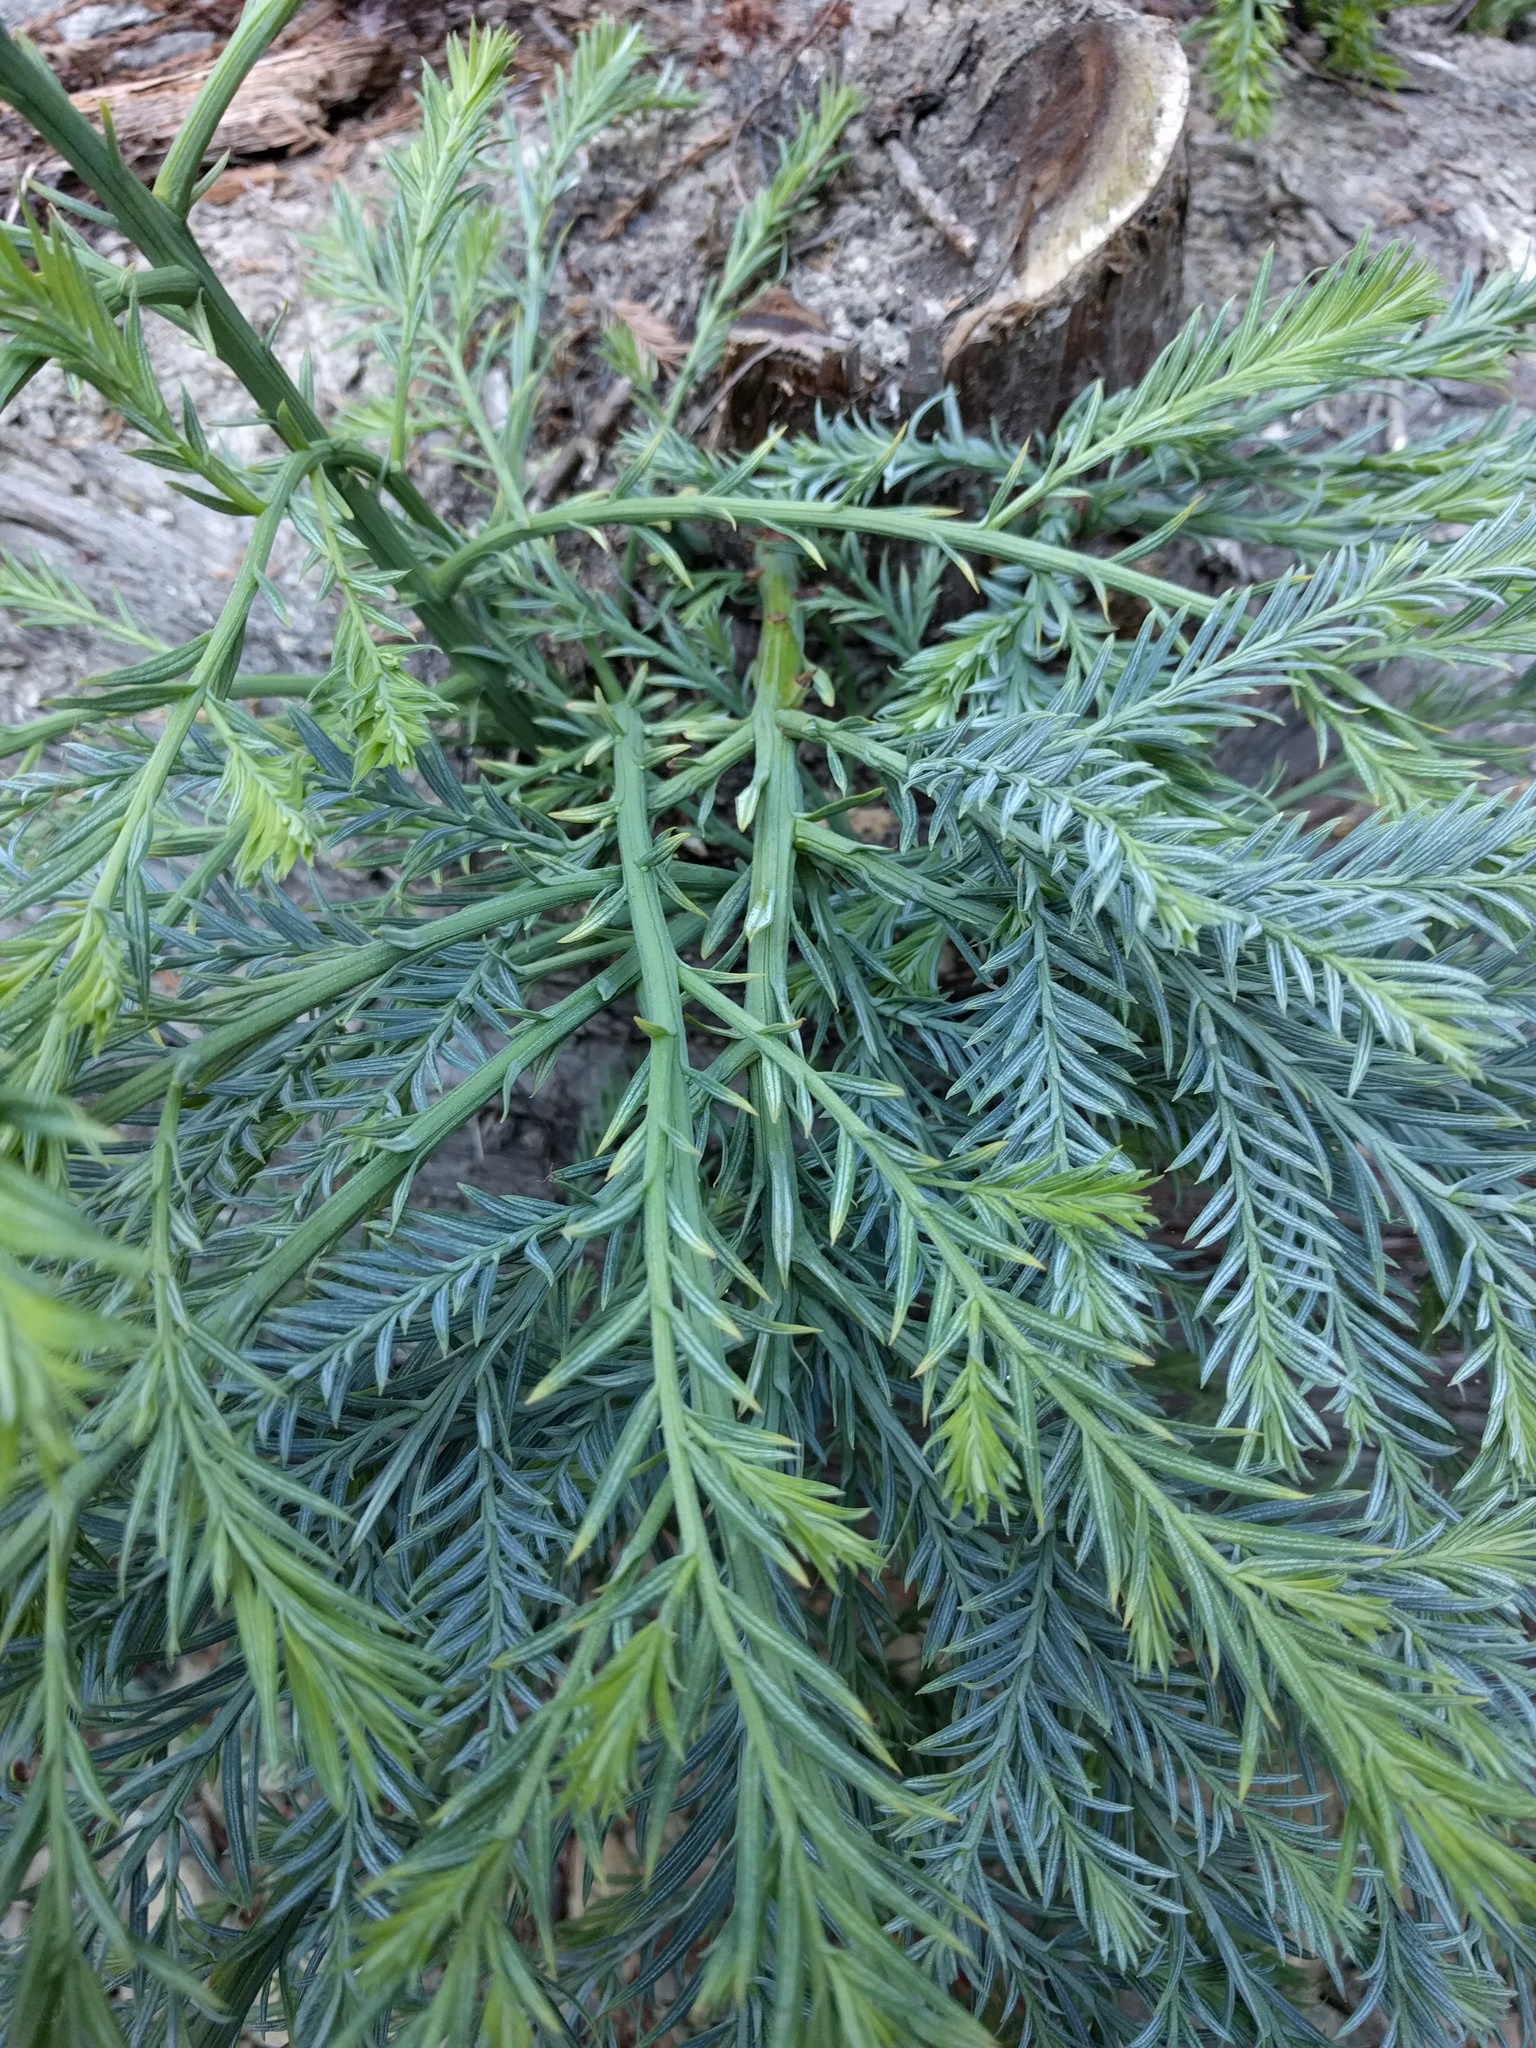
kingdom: Plantae
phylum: Tracheophyta
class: Pinopsida
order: Pinales
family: Cupressaceae
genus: Sequoia
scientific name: Sequoia sempervirens
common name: Coast redwood
